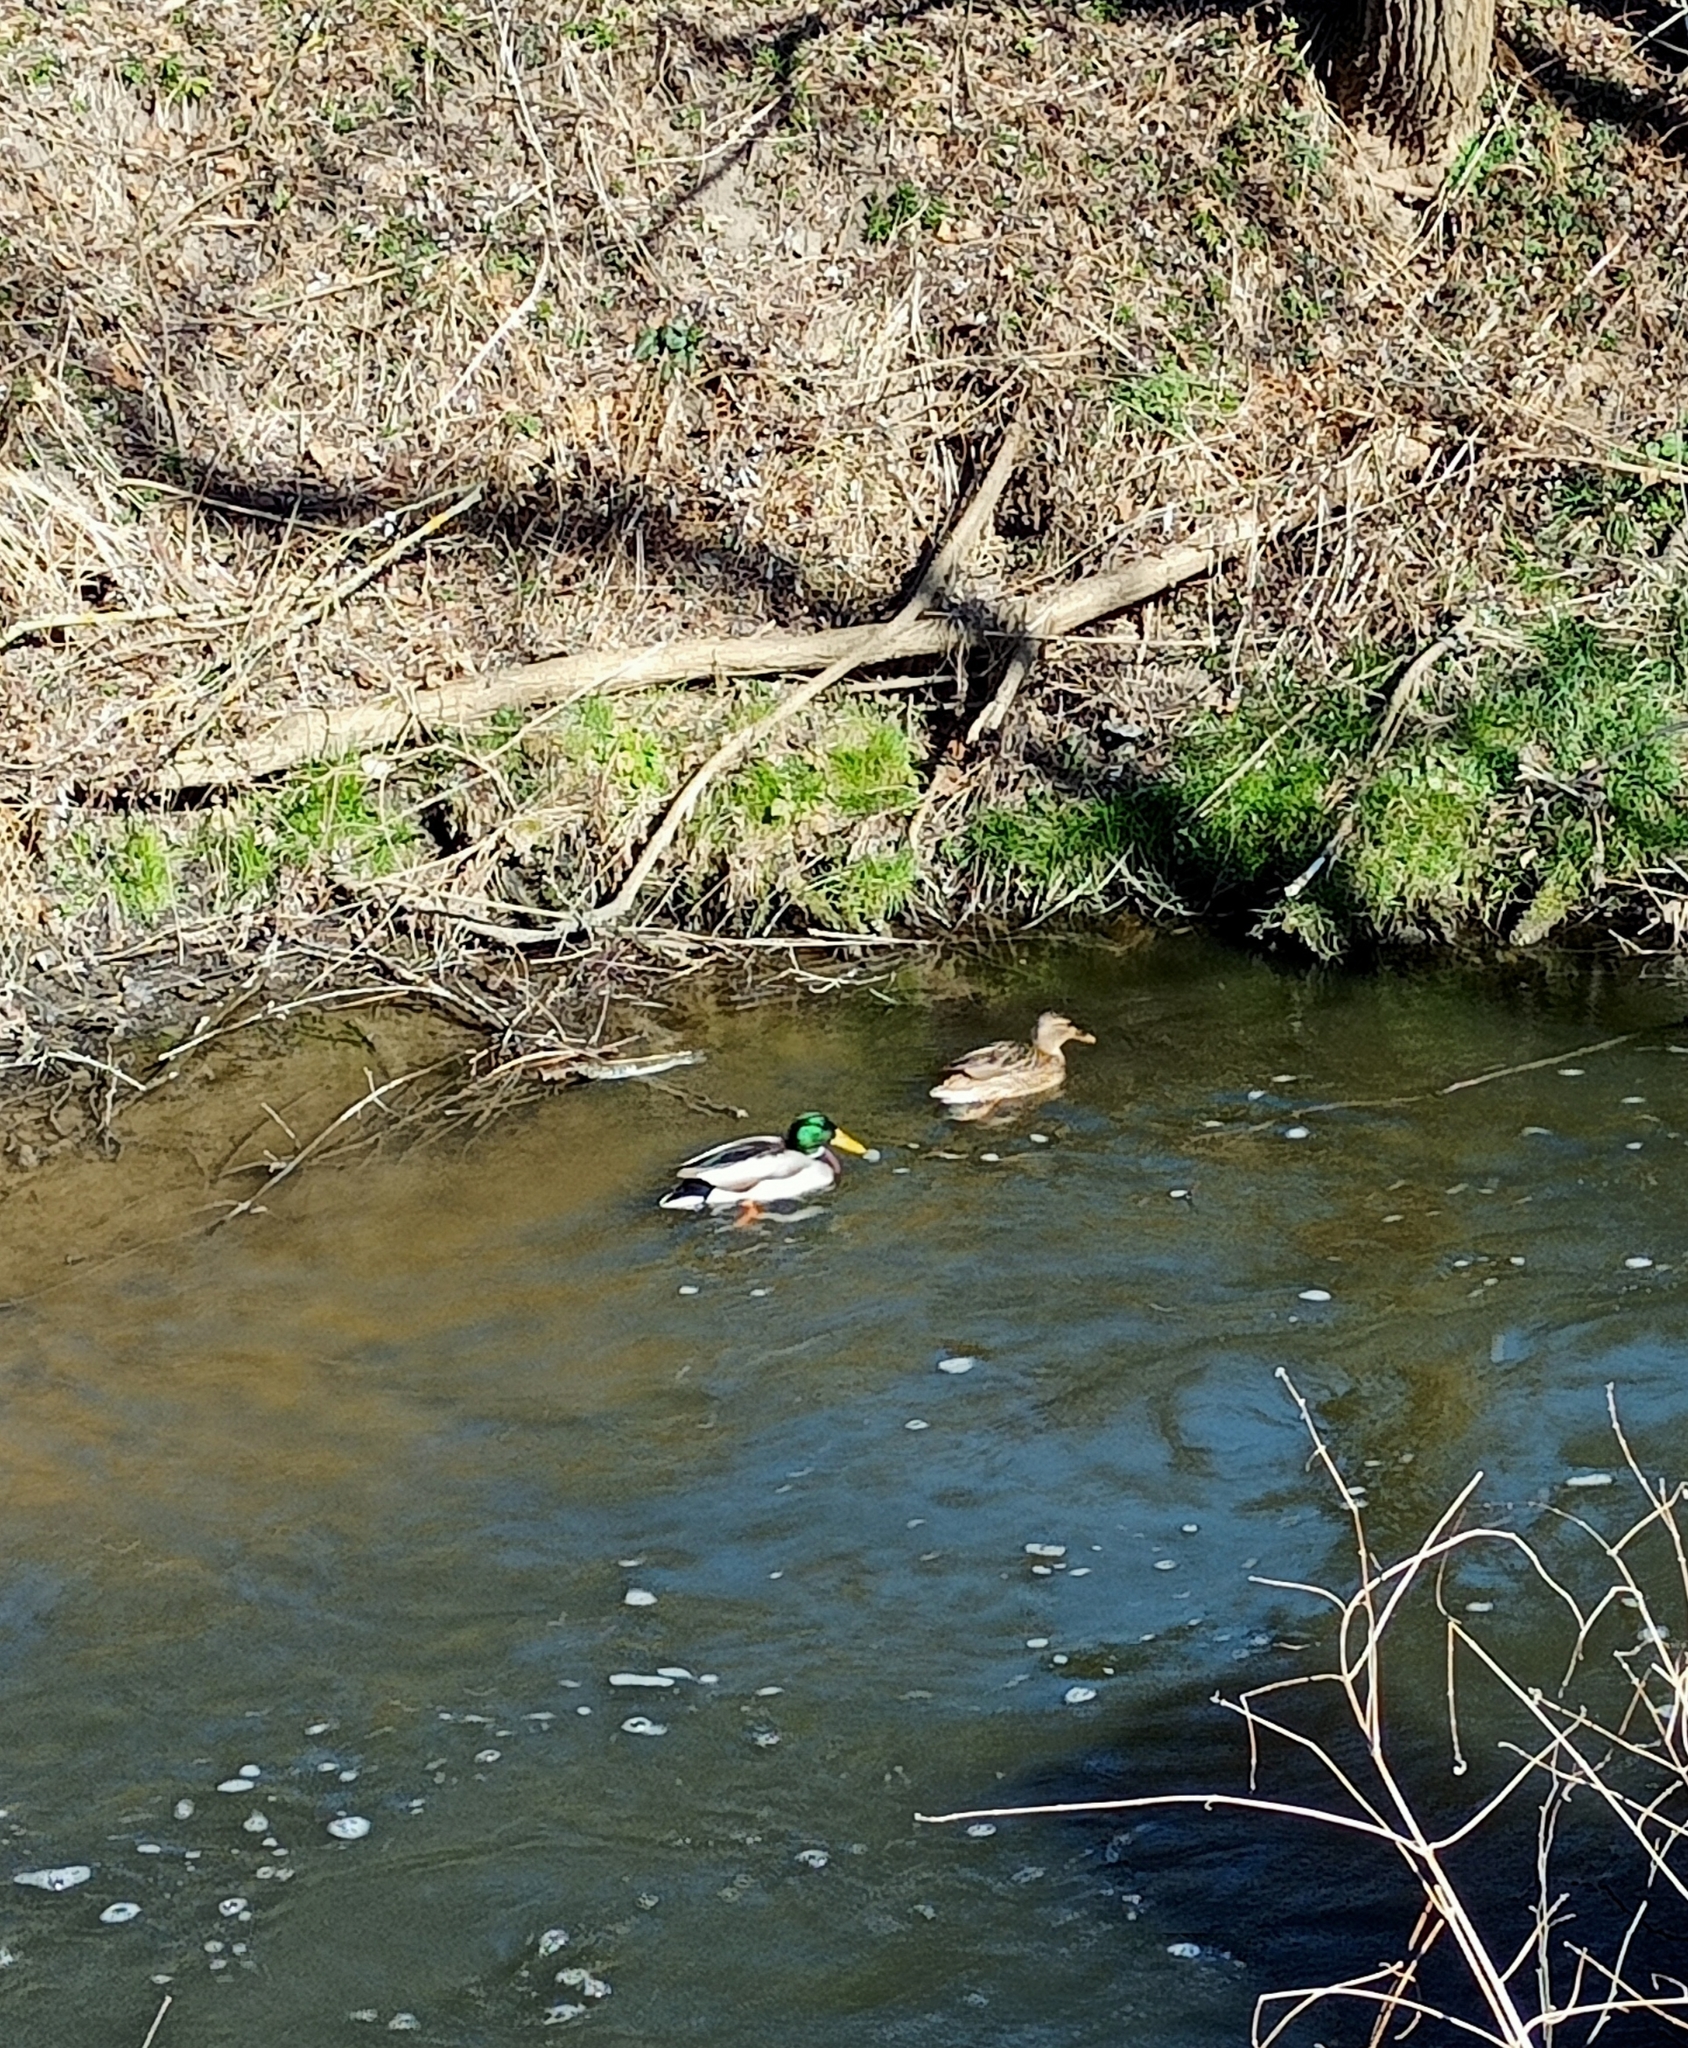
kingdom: Animalia
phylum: Chordata
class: Aves
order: Anseriformes
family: Anatidae
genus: Anas
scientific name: Anas platyrhynchos
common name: Mallard
